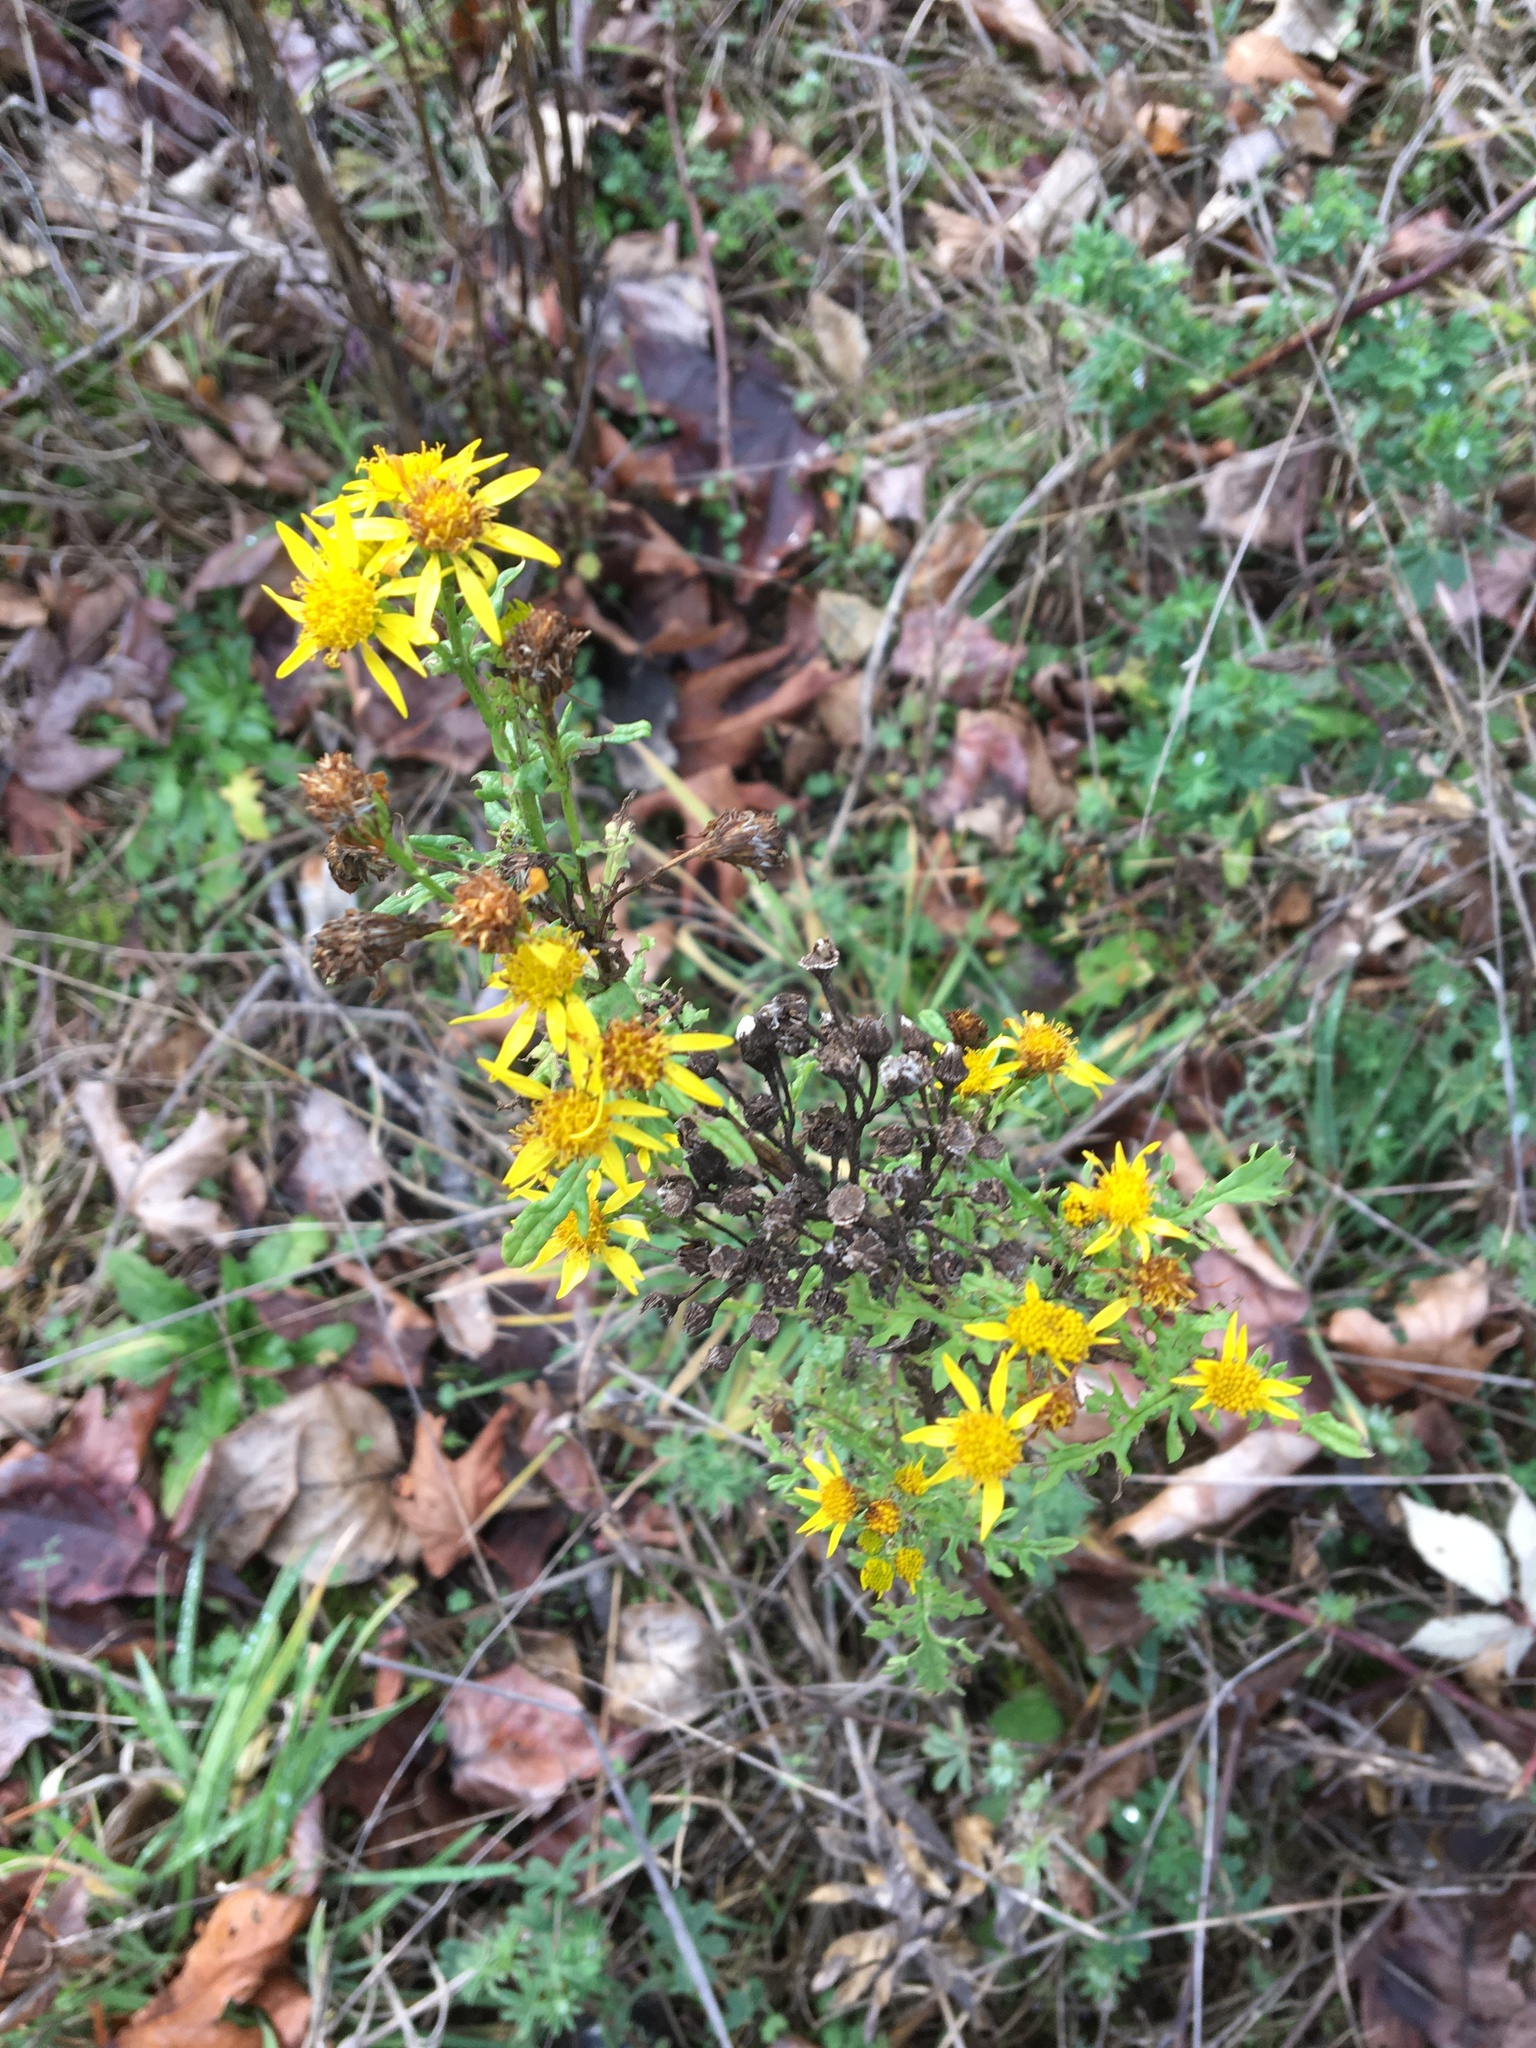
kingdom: Plantae
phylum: Tracheophyta
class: Magnoliopsida
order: Asterales
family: Asteraceae
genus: Jacobaea
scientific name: Jacobaea vulgaris
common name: Stinking willie
